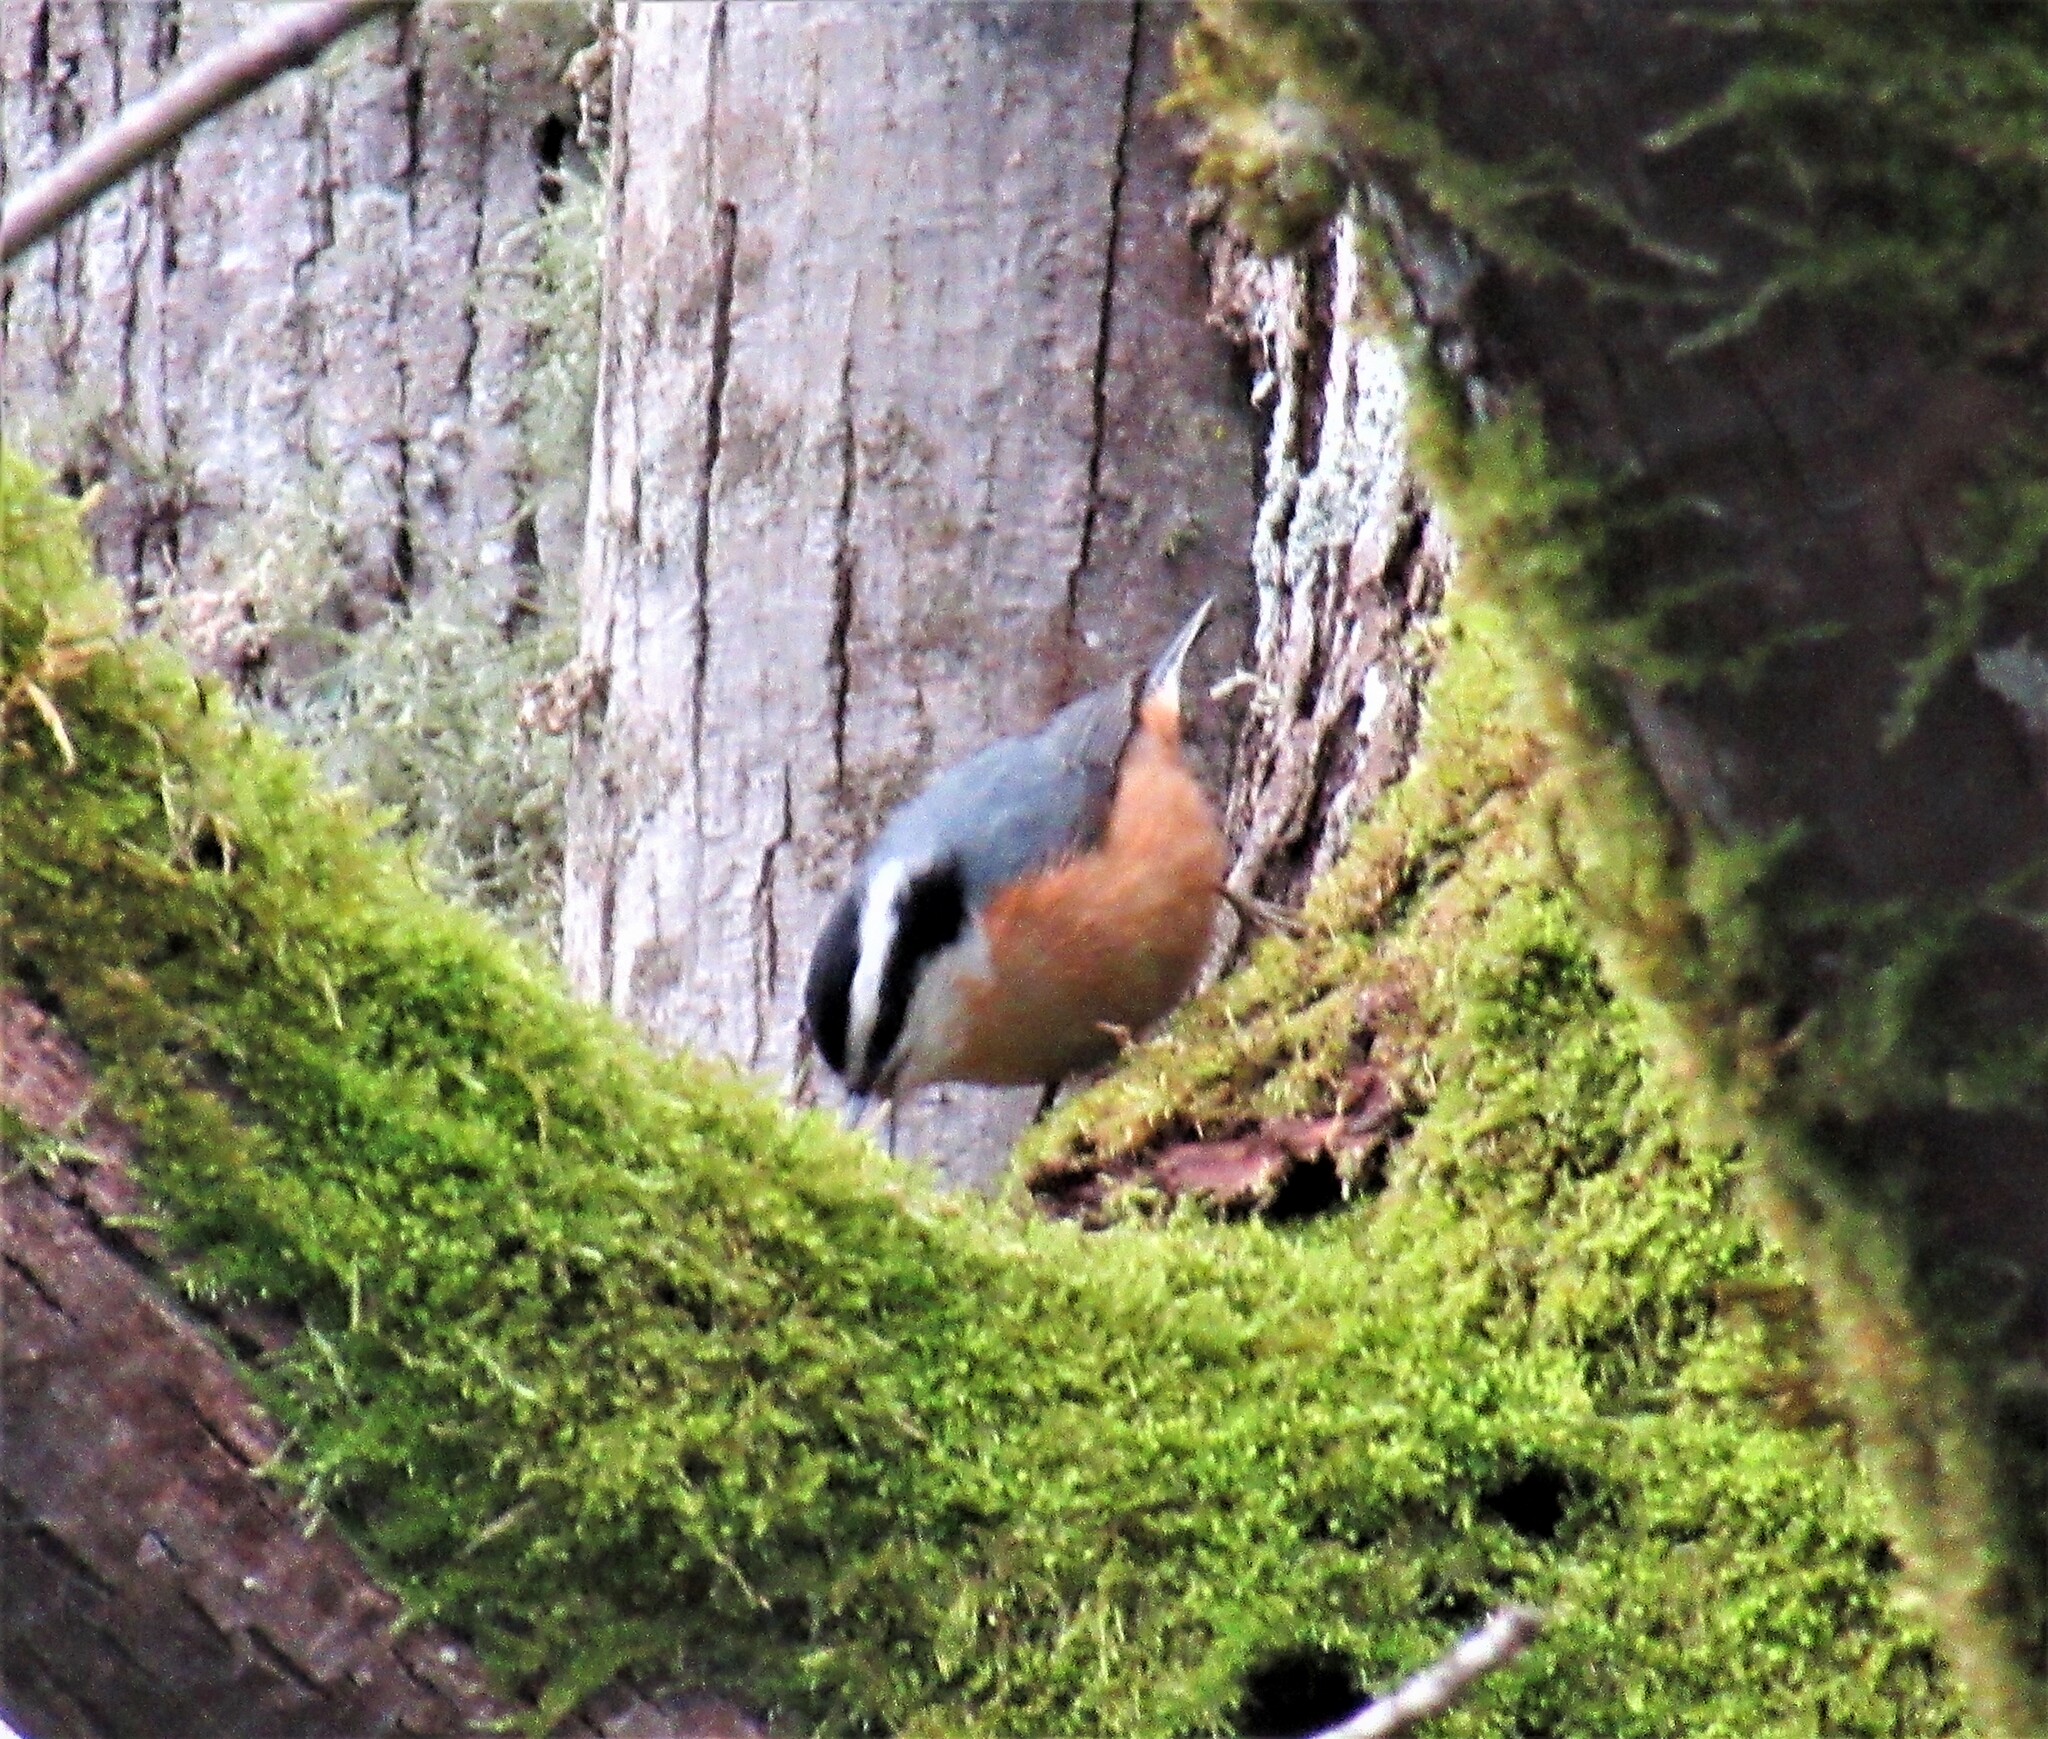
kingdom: Animalia
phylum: Chordata
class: Aves
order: Passeriformes
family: Sittidae
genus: Sitta
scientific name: Sitta canadensis
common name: Red-breasted nuthatch
